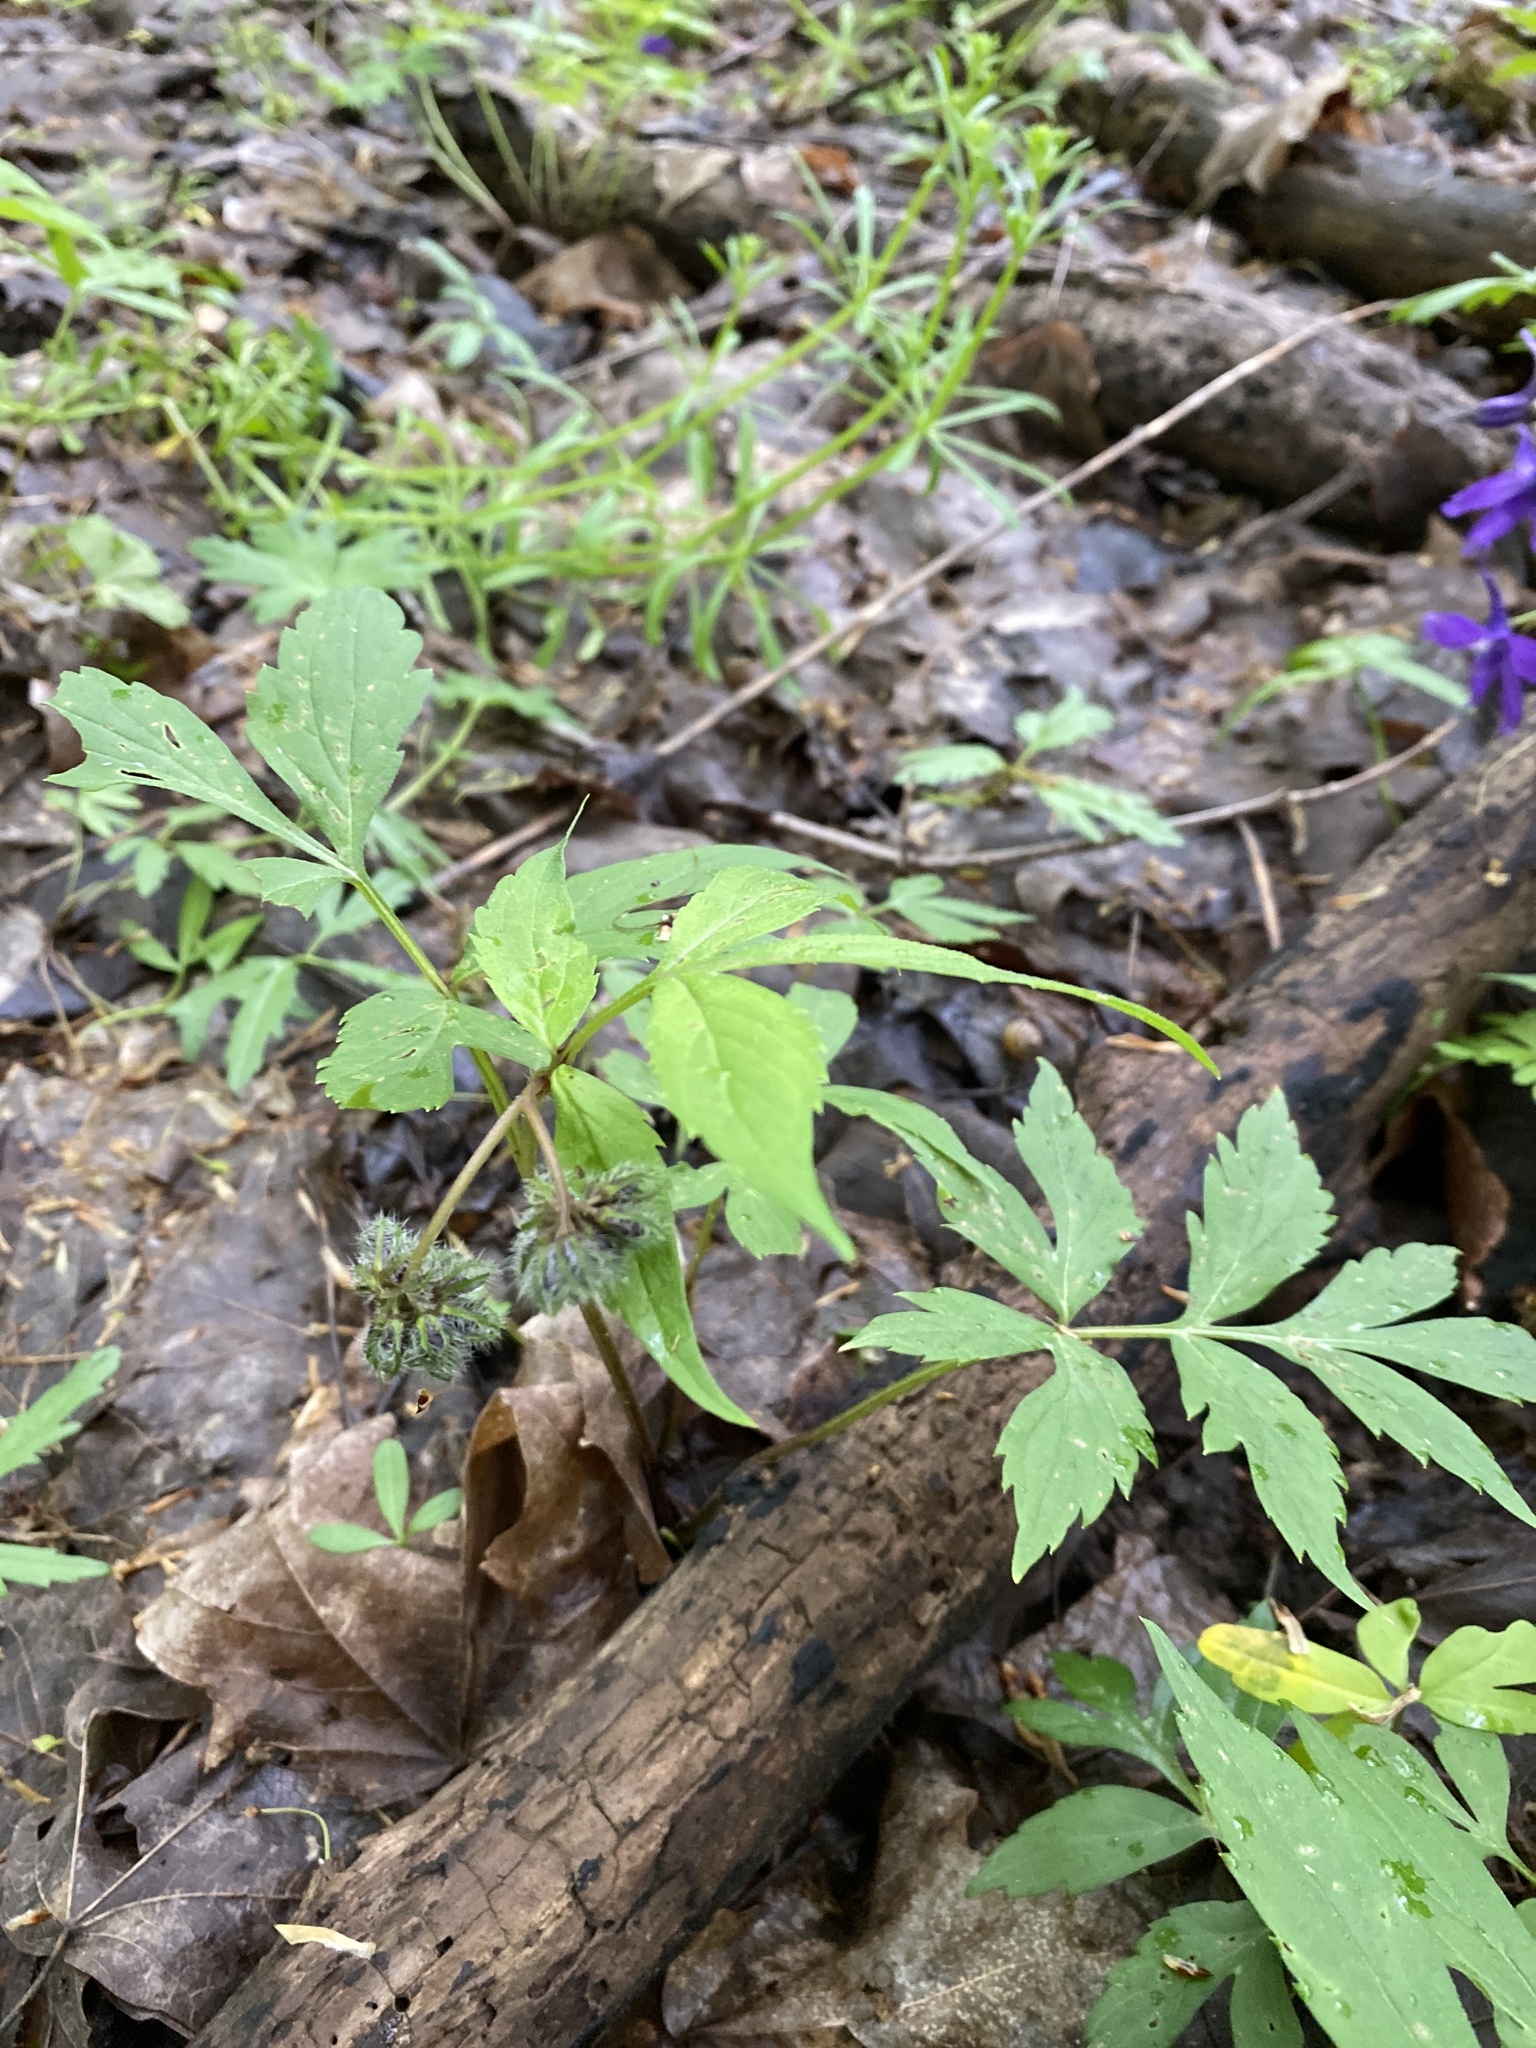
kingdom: Plantae
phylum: Tracheophyta
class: Magnoliopsida
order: Boraginales
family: Hydrophyllaceae
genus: Hydrophyllum
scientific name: Hydrophyllum virginianum
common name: Virginia waterleaf
